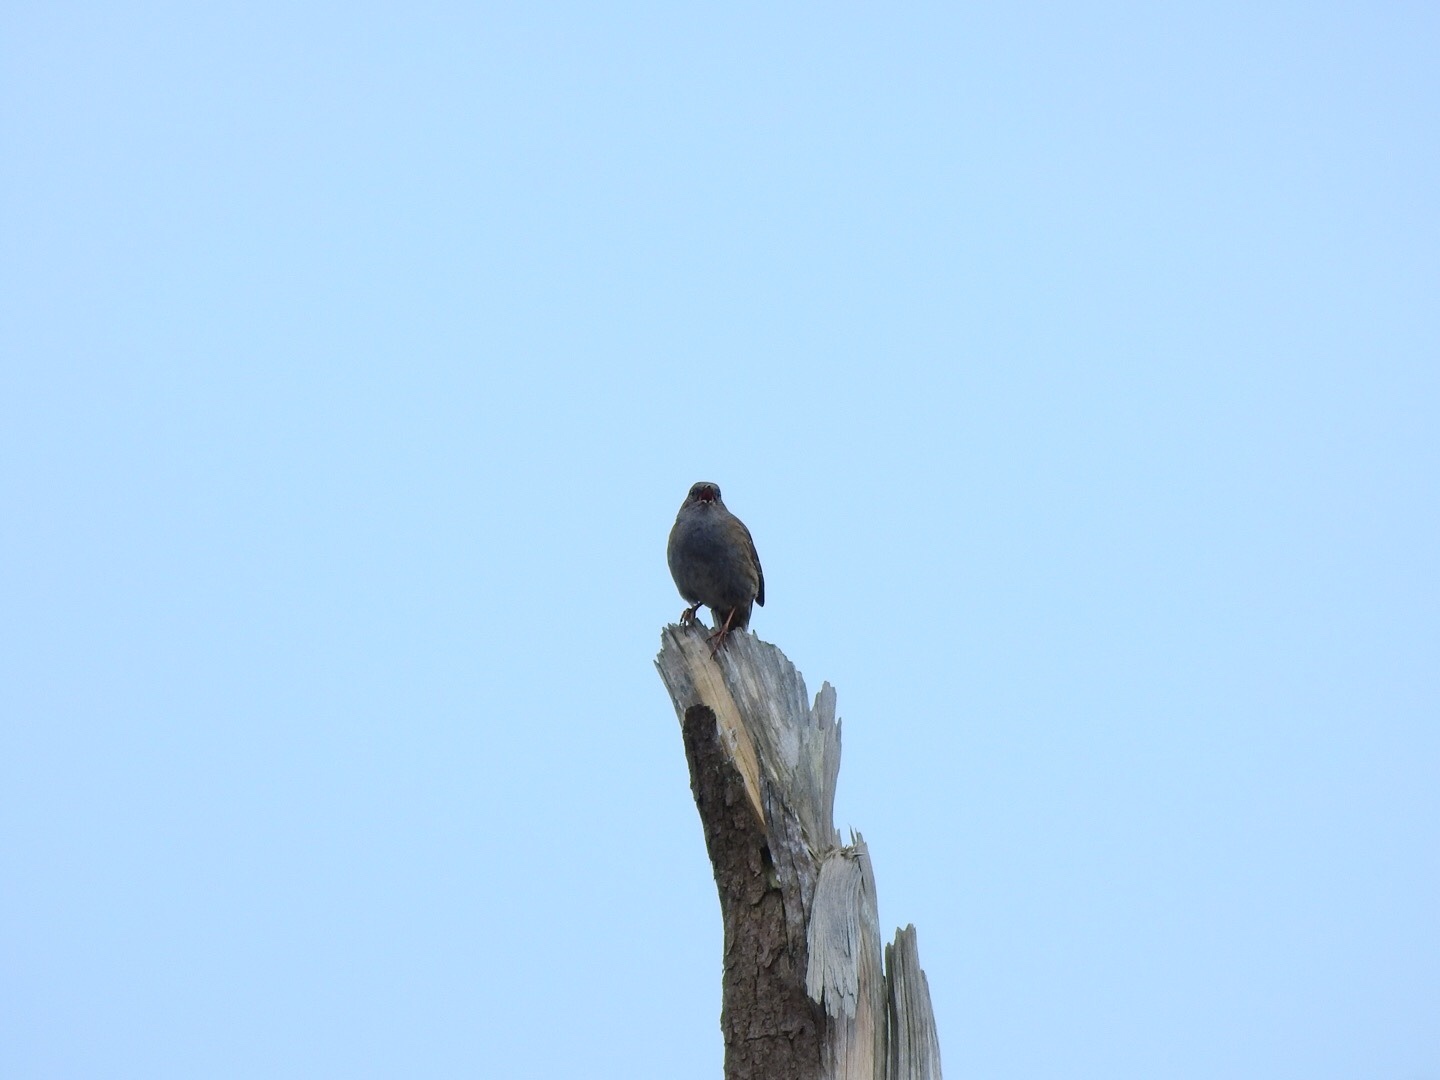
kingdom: Animalia
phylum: Chordata
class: Aves
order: Passeriformes
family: Prunellidae
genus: Prunella
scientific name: Prunella modularis
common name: Dunnock
